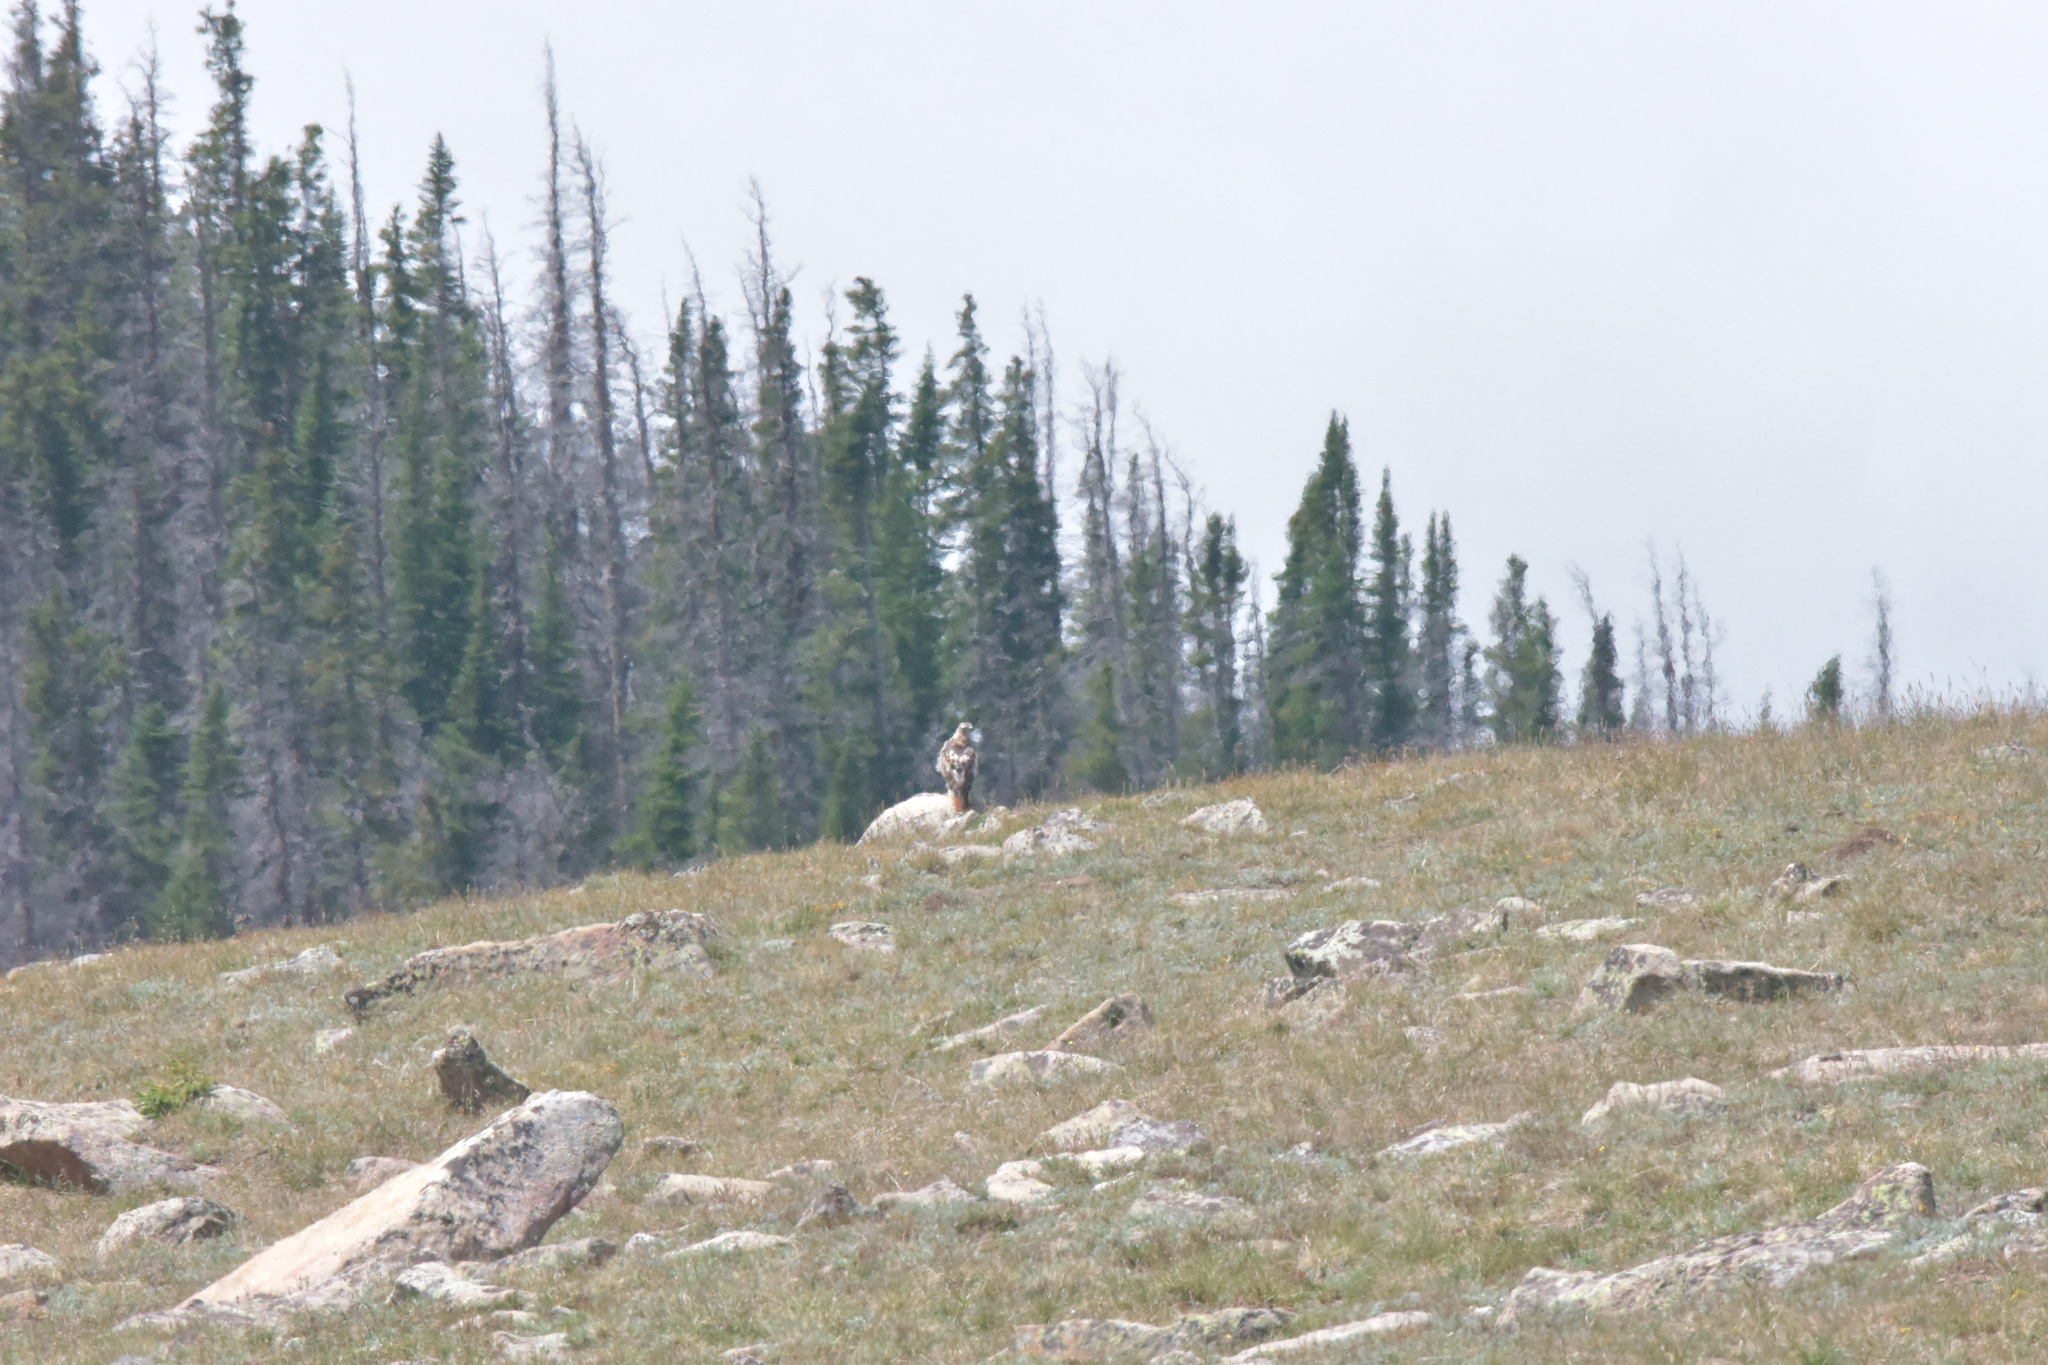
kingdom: Animalia
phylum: Chordata
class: Aves
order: Accipitriformes
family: Accipitridae
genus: Buteo
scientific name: Buteo jamaicensis
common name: Red-tailed hawk
